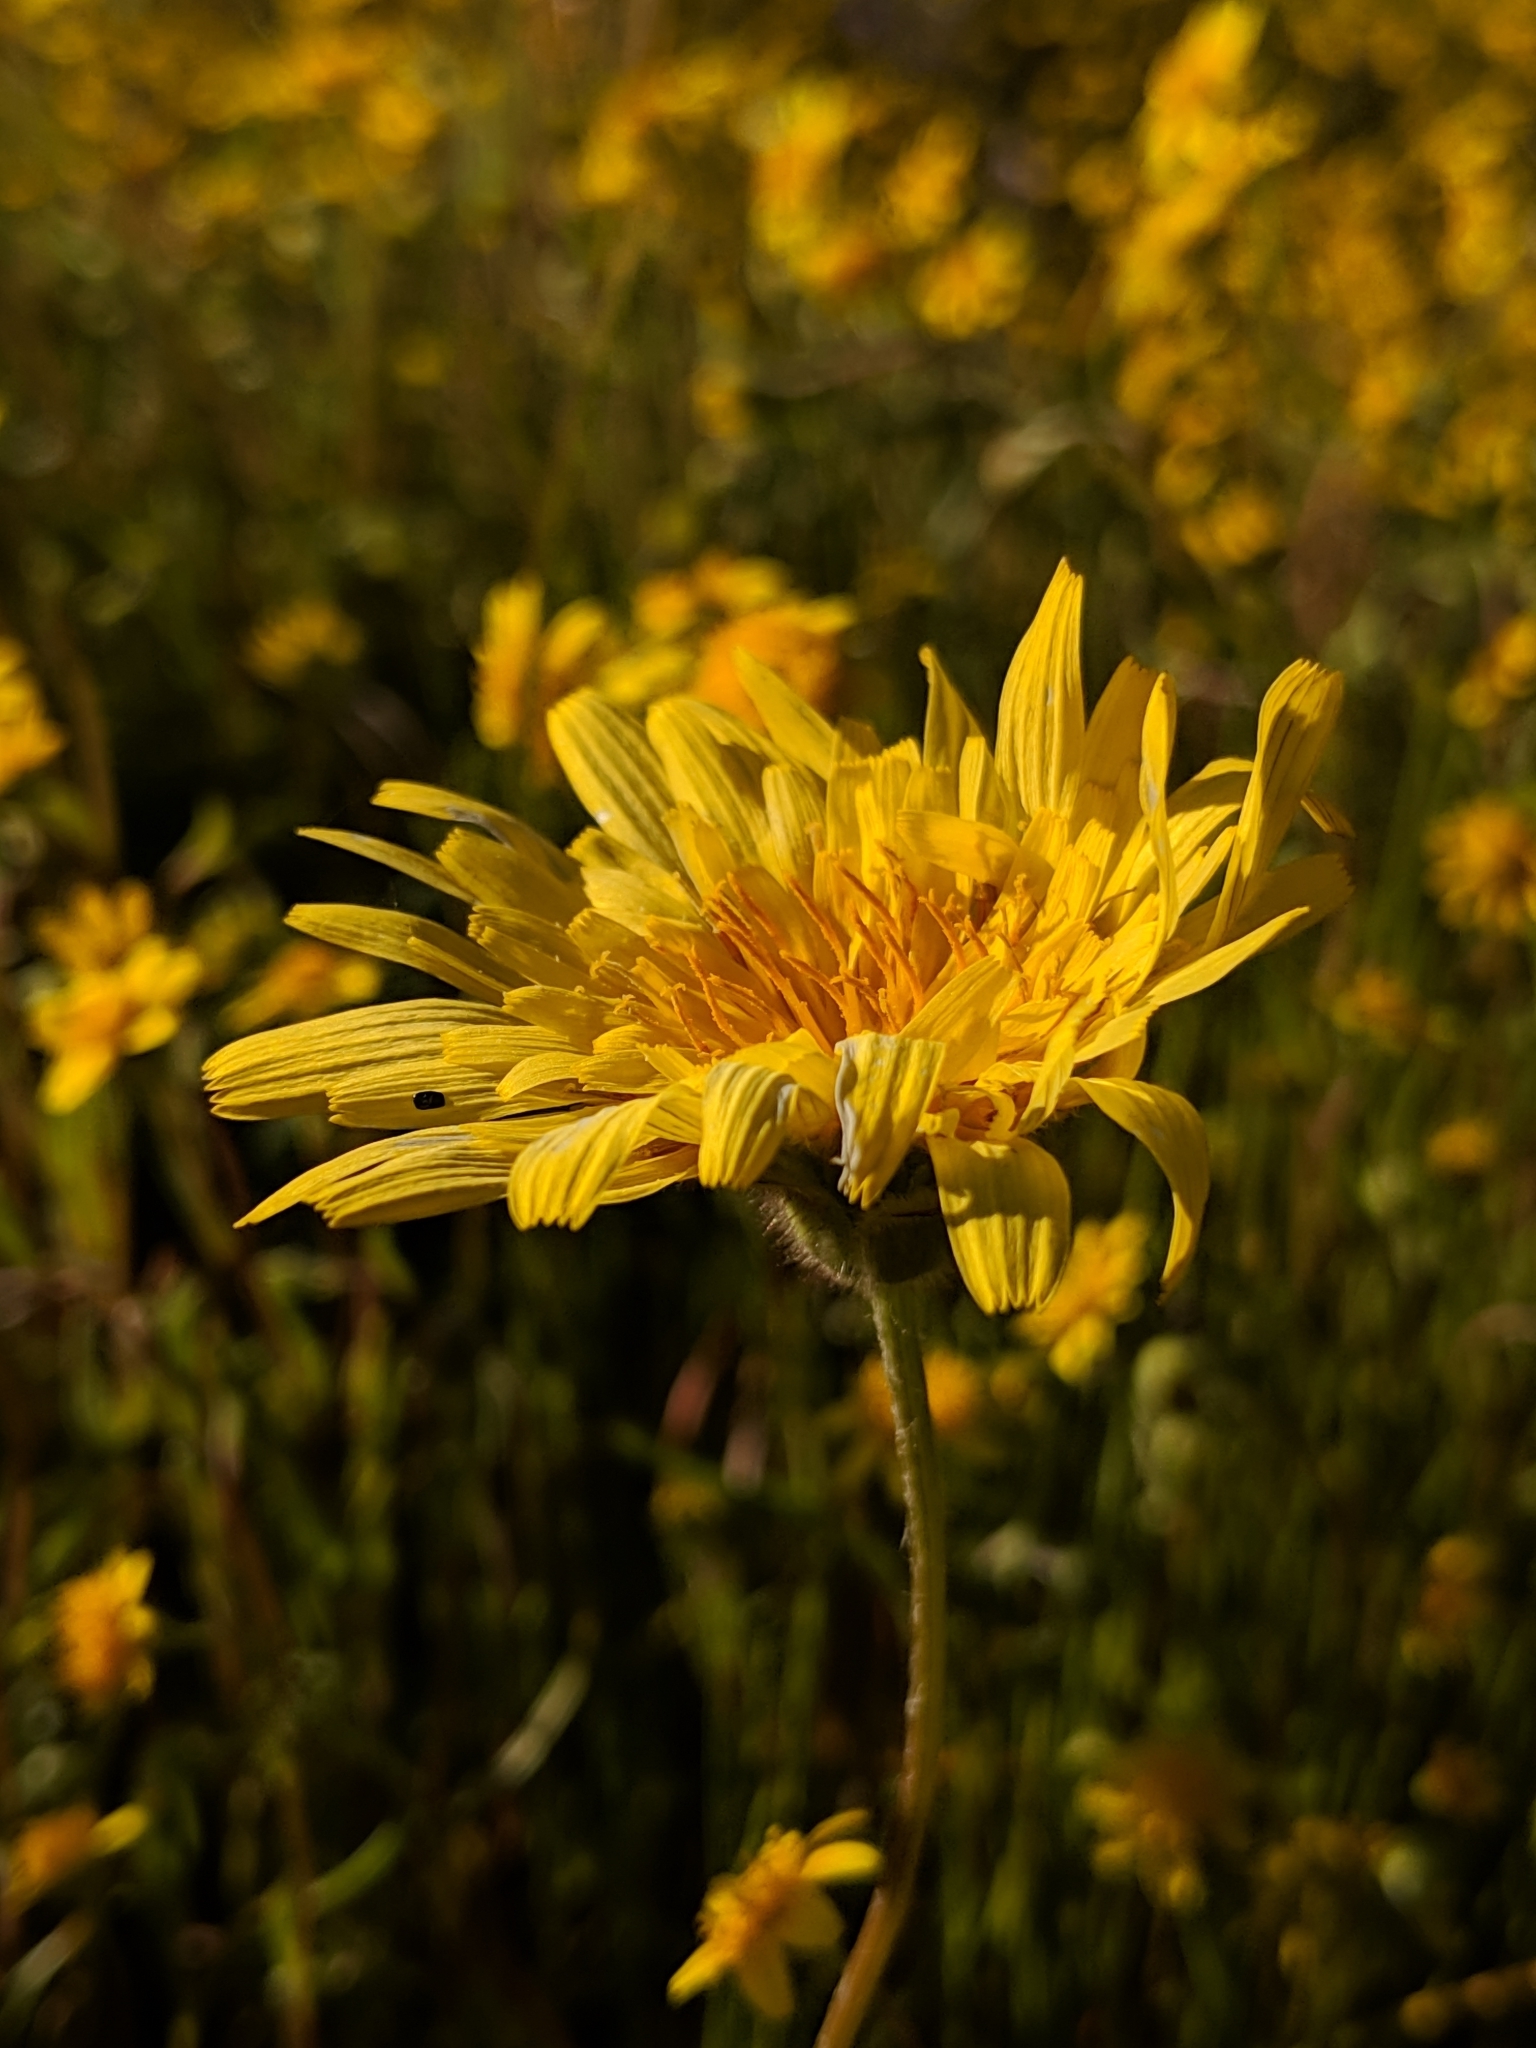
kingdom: Plantae
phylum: Tracheophyta
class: Magnoliopsida
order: Asterales
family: Asteraceae
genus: Agoseris
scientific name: Agoseris heterophylla
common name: Annual agoseris
